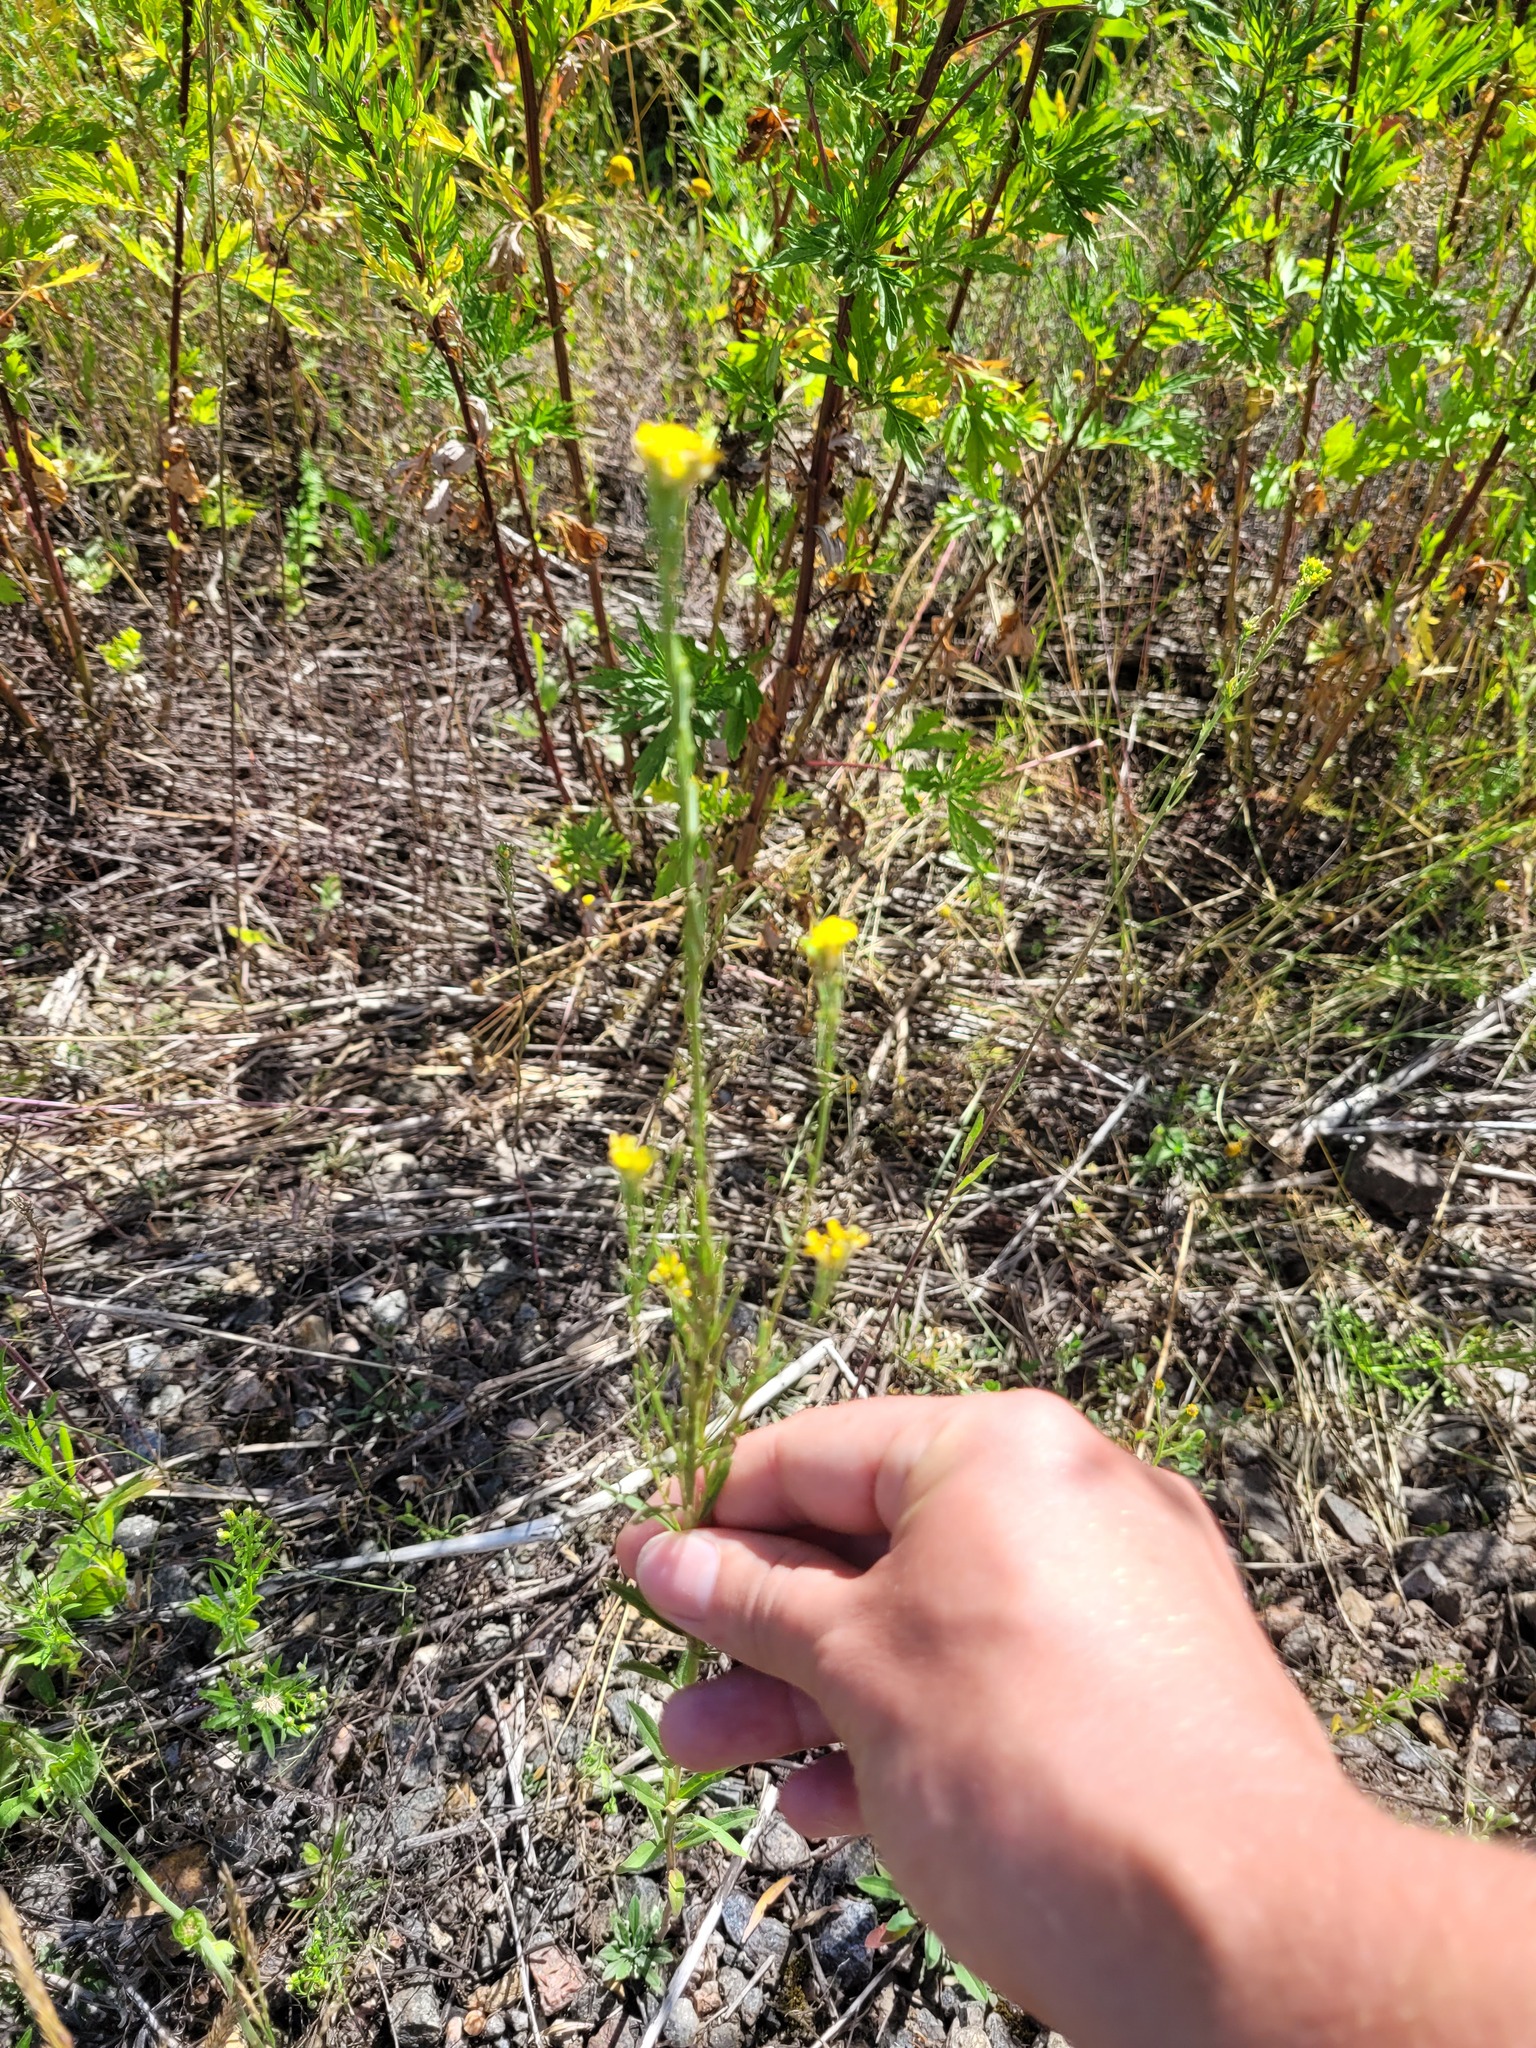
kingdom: Plantae
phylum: Tracheophyta
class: Magnoliopsida
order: Brassicales
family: Brassicaceae
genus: Erysimum
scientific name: Erysimum hieraciifolium
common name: European wallflower
